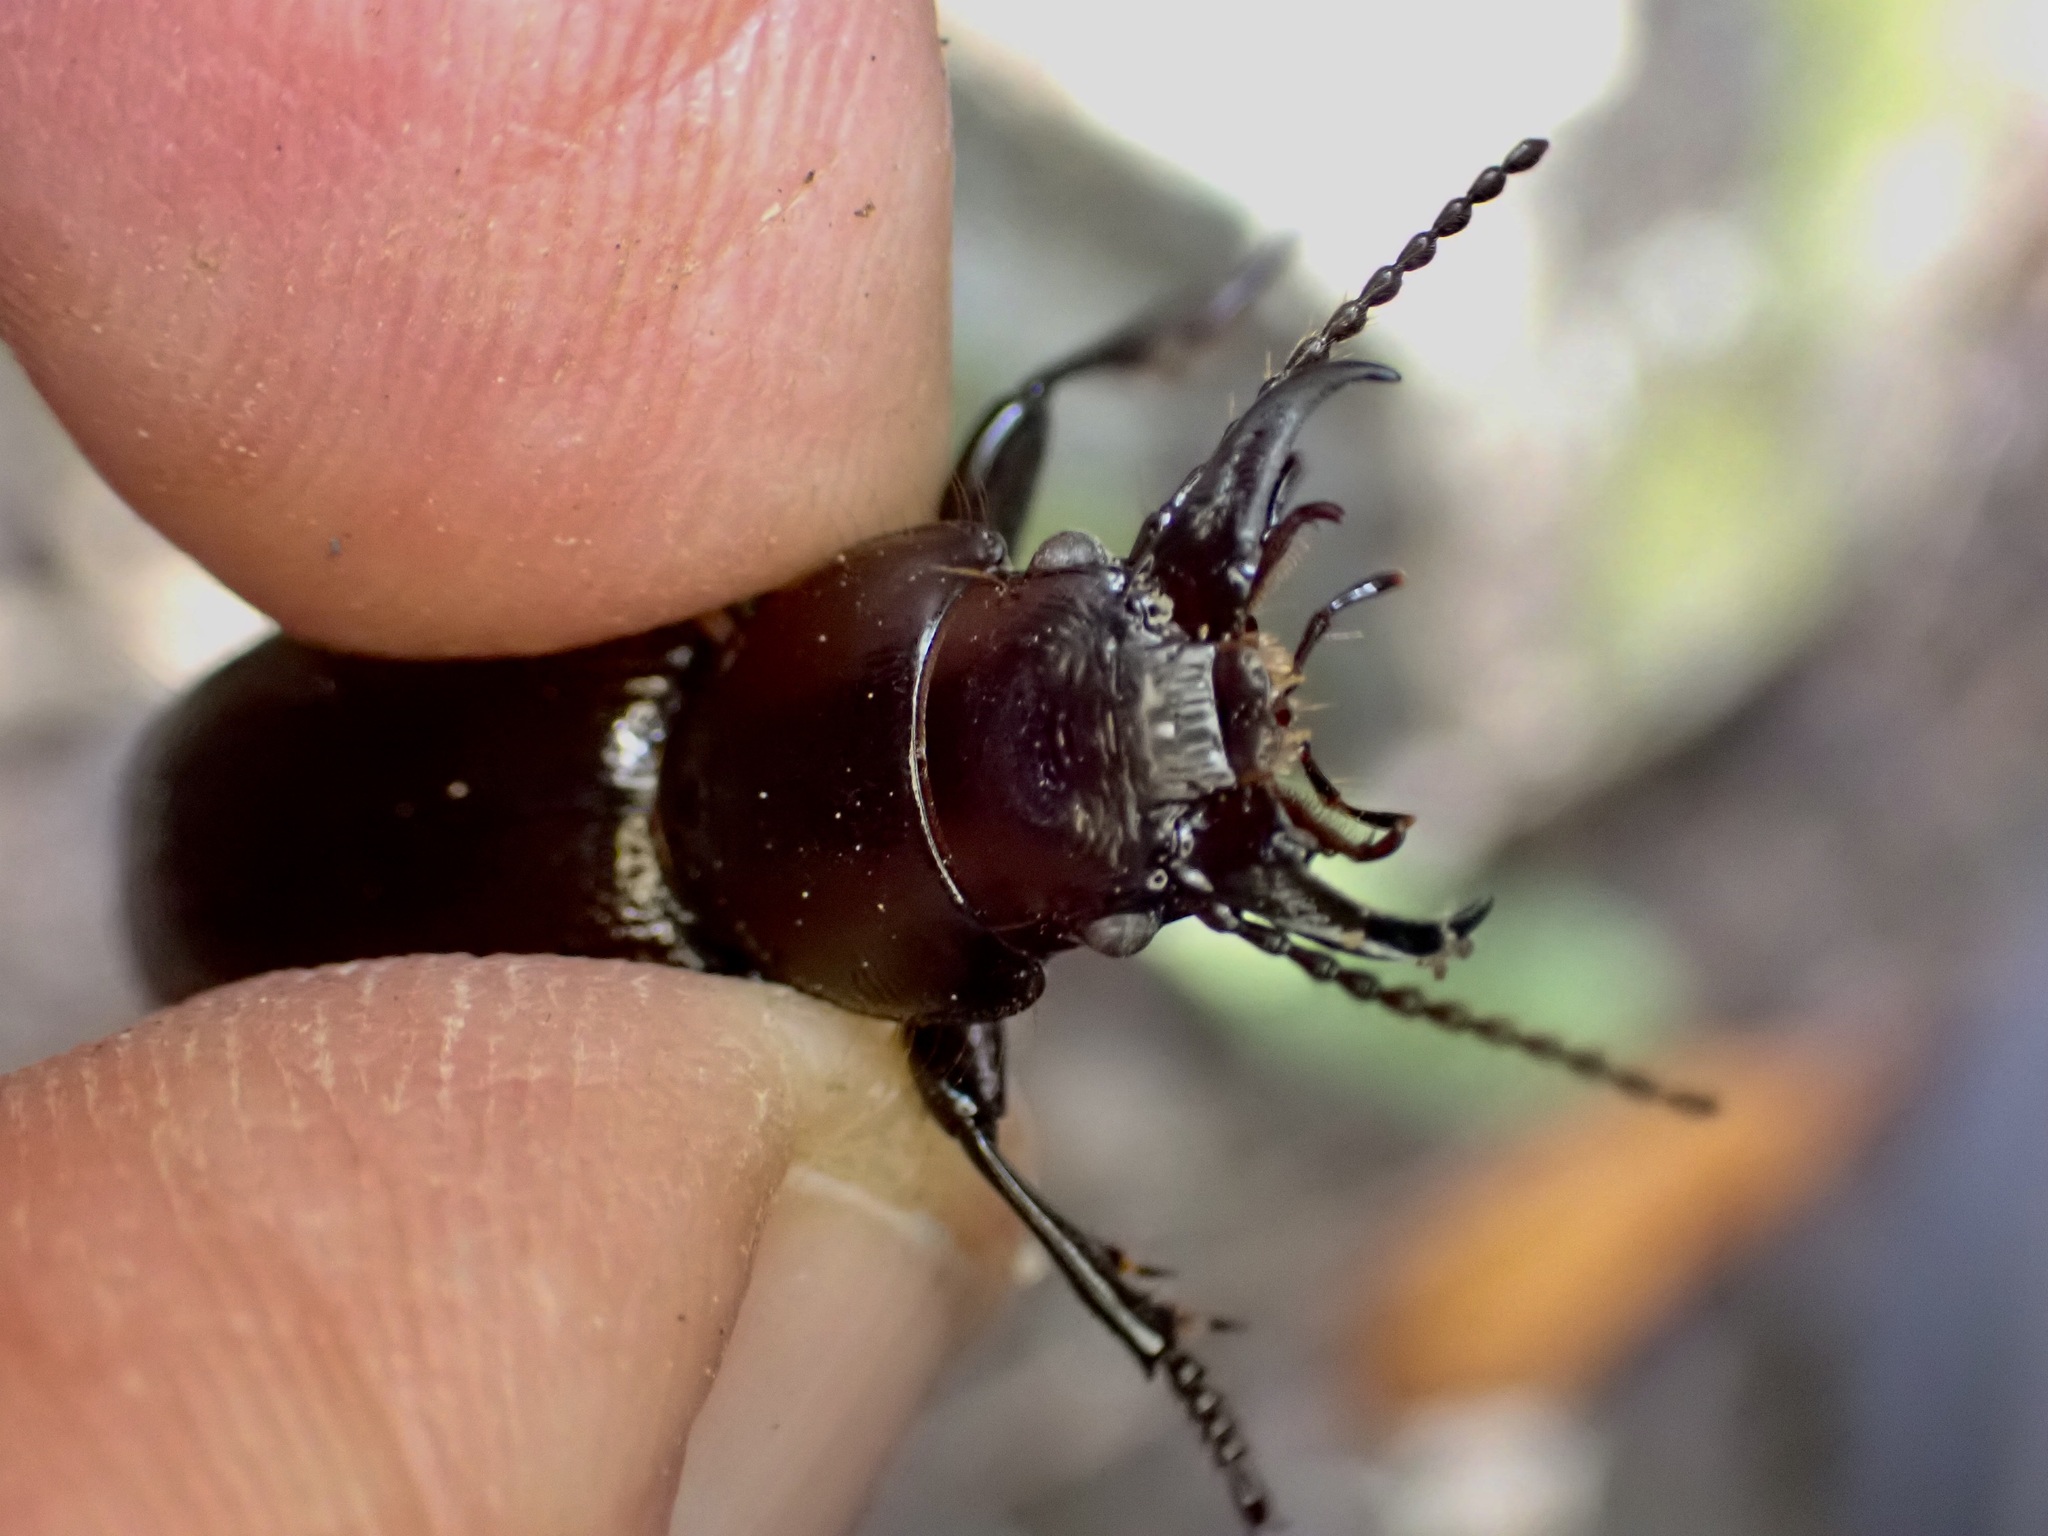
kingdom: Animalia
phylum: Arthropoda
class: Insecta
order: Coleoptera
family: Carabidae
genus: Mecodema
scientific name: Mecodema howittii
